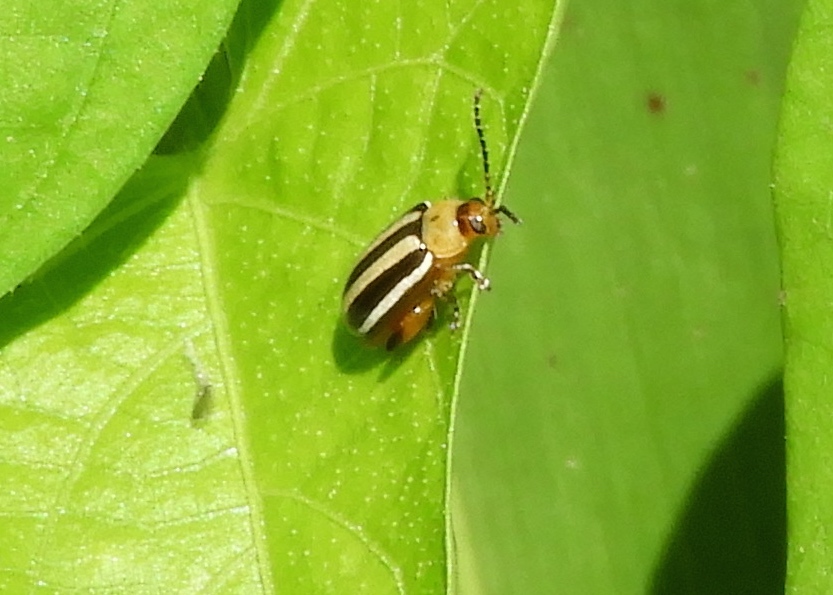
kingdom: Animalia
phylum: Arthropoda
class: Insecta
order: Coleoptera
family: Chrysomelidae
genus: Disonycha
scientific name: Disonycha glabrata
